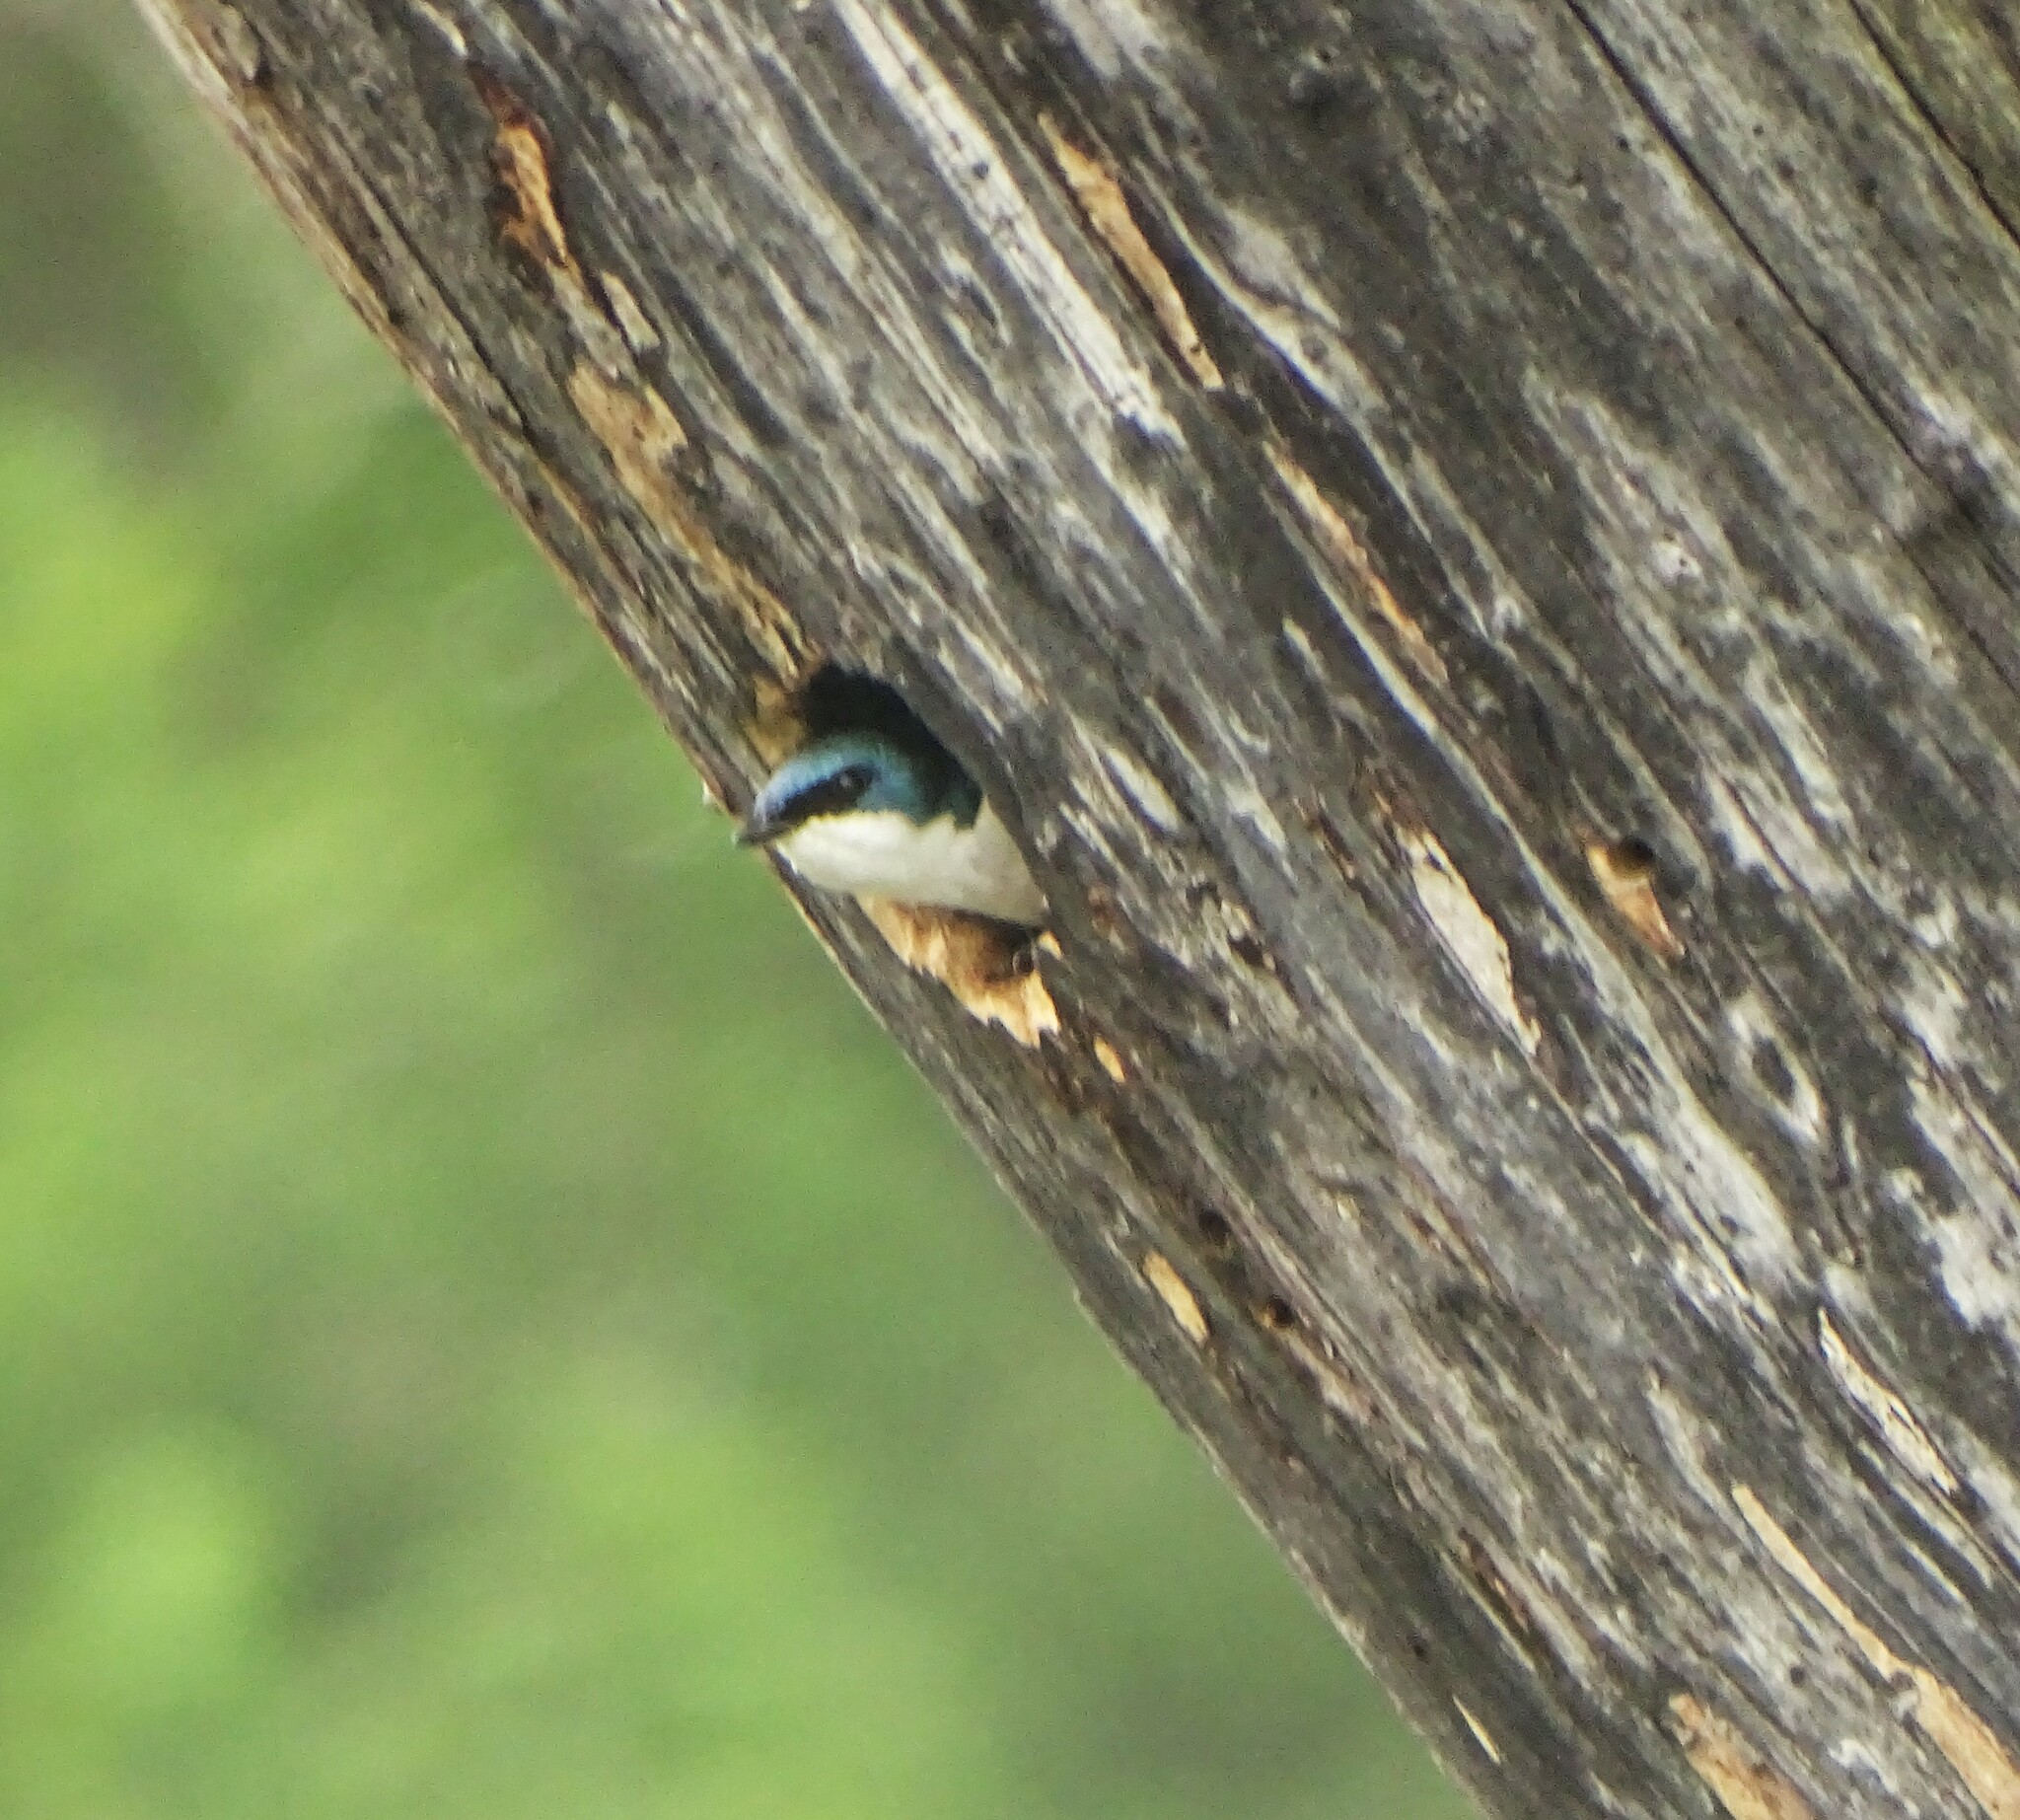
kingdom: Animalia
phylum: Chordata
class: Aves
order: Passeriformes
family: Hirundinidae
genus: Tachycineta
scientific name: Tachycineta bicolor
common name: Tree swallow
